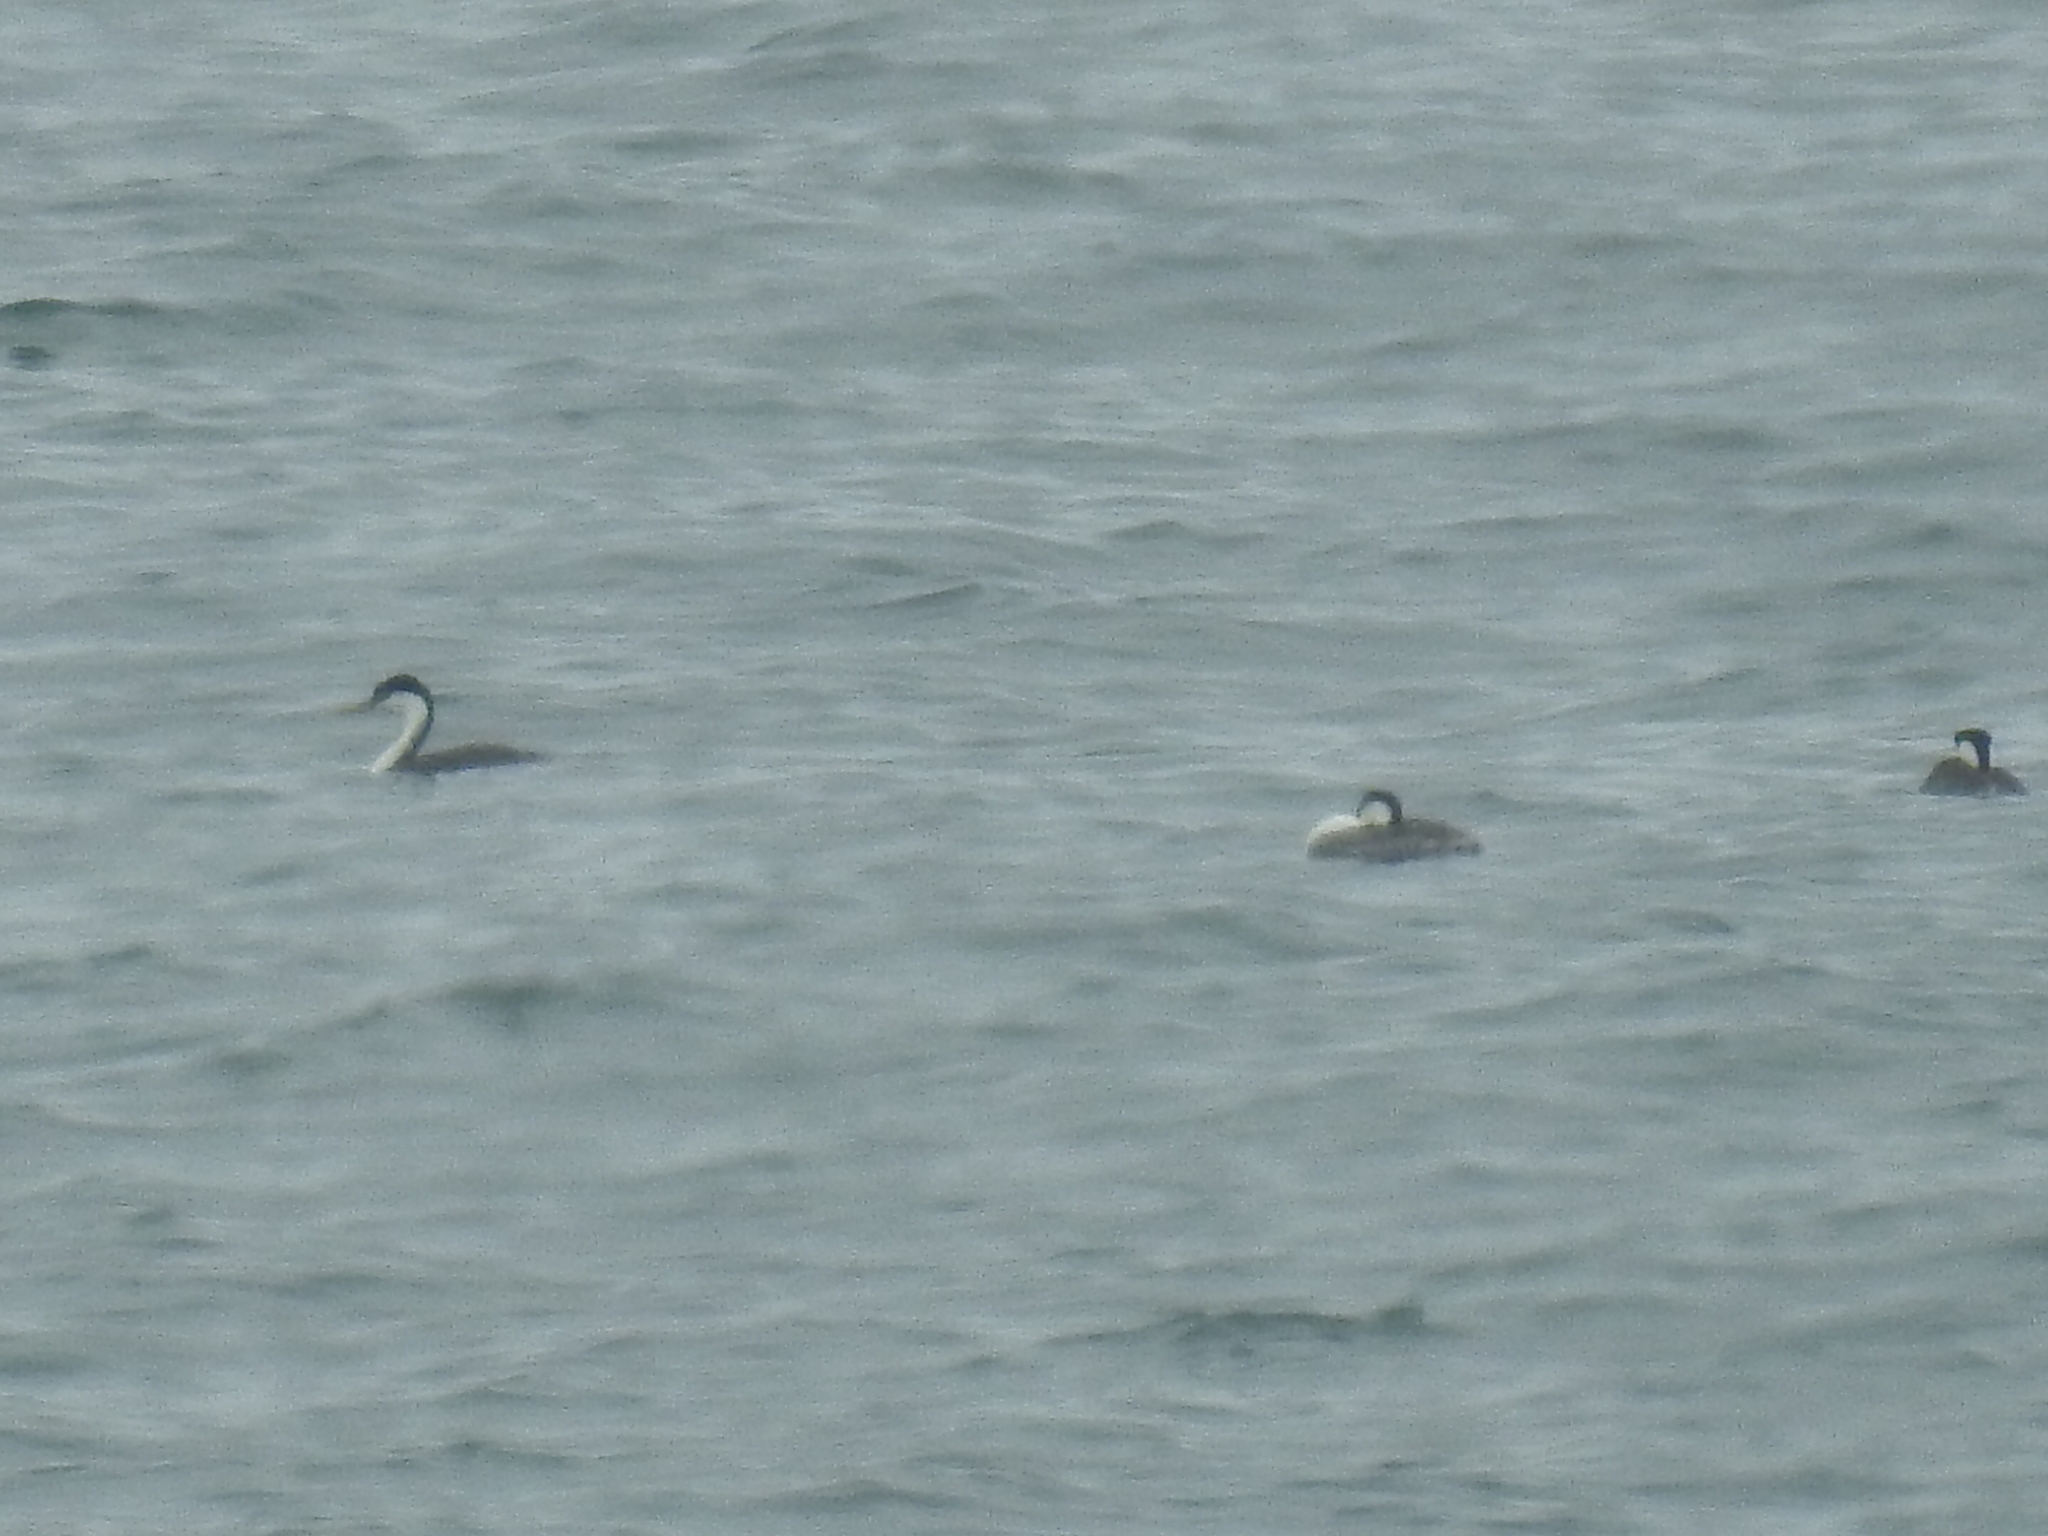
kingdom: Animalia
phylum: Chordata
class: Aves
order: Podicipediformes
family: Podicipedidae
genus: Aechmophorus
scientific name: Aechmophorus occidentalis
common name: Western grebe
